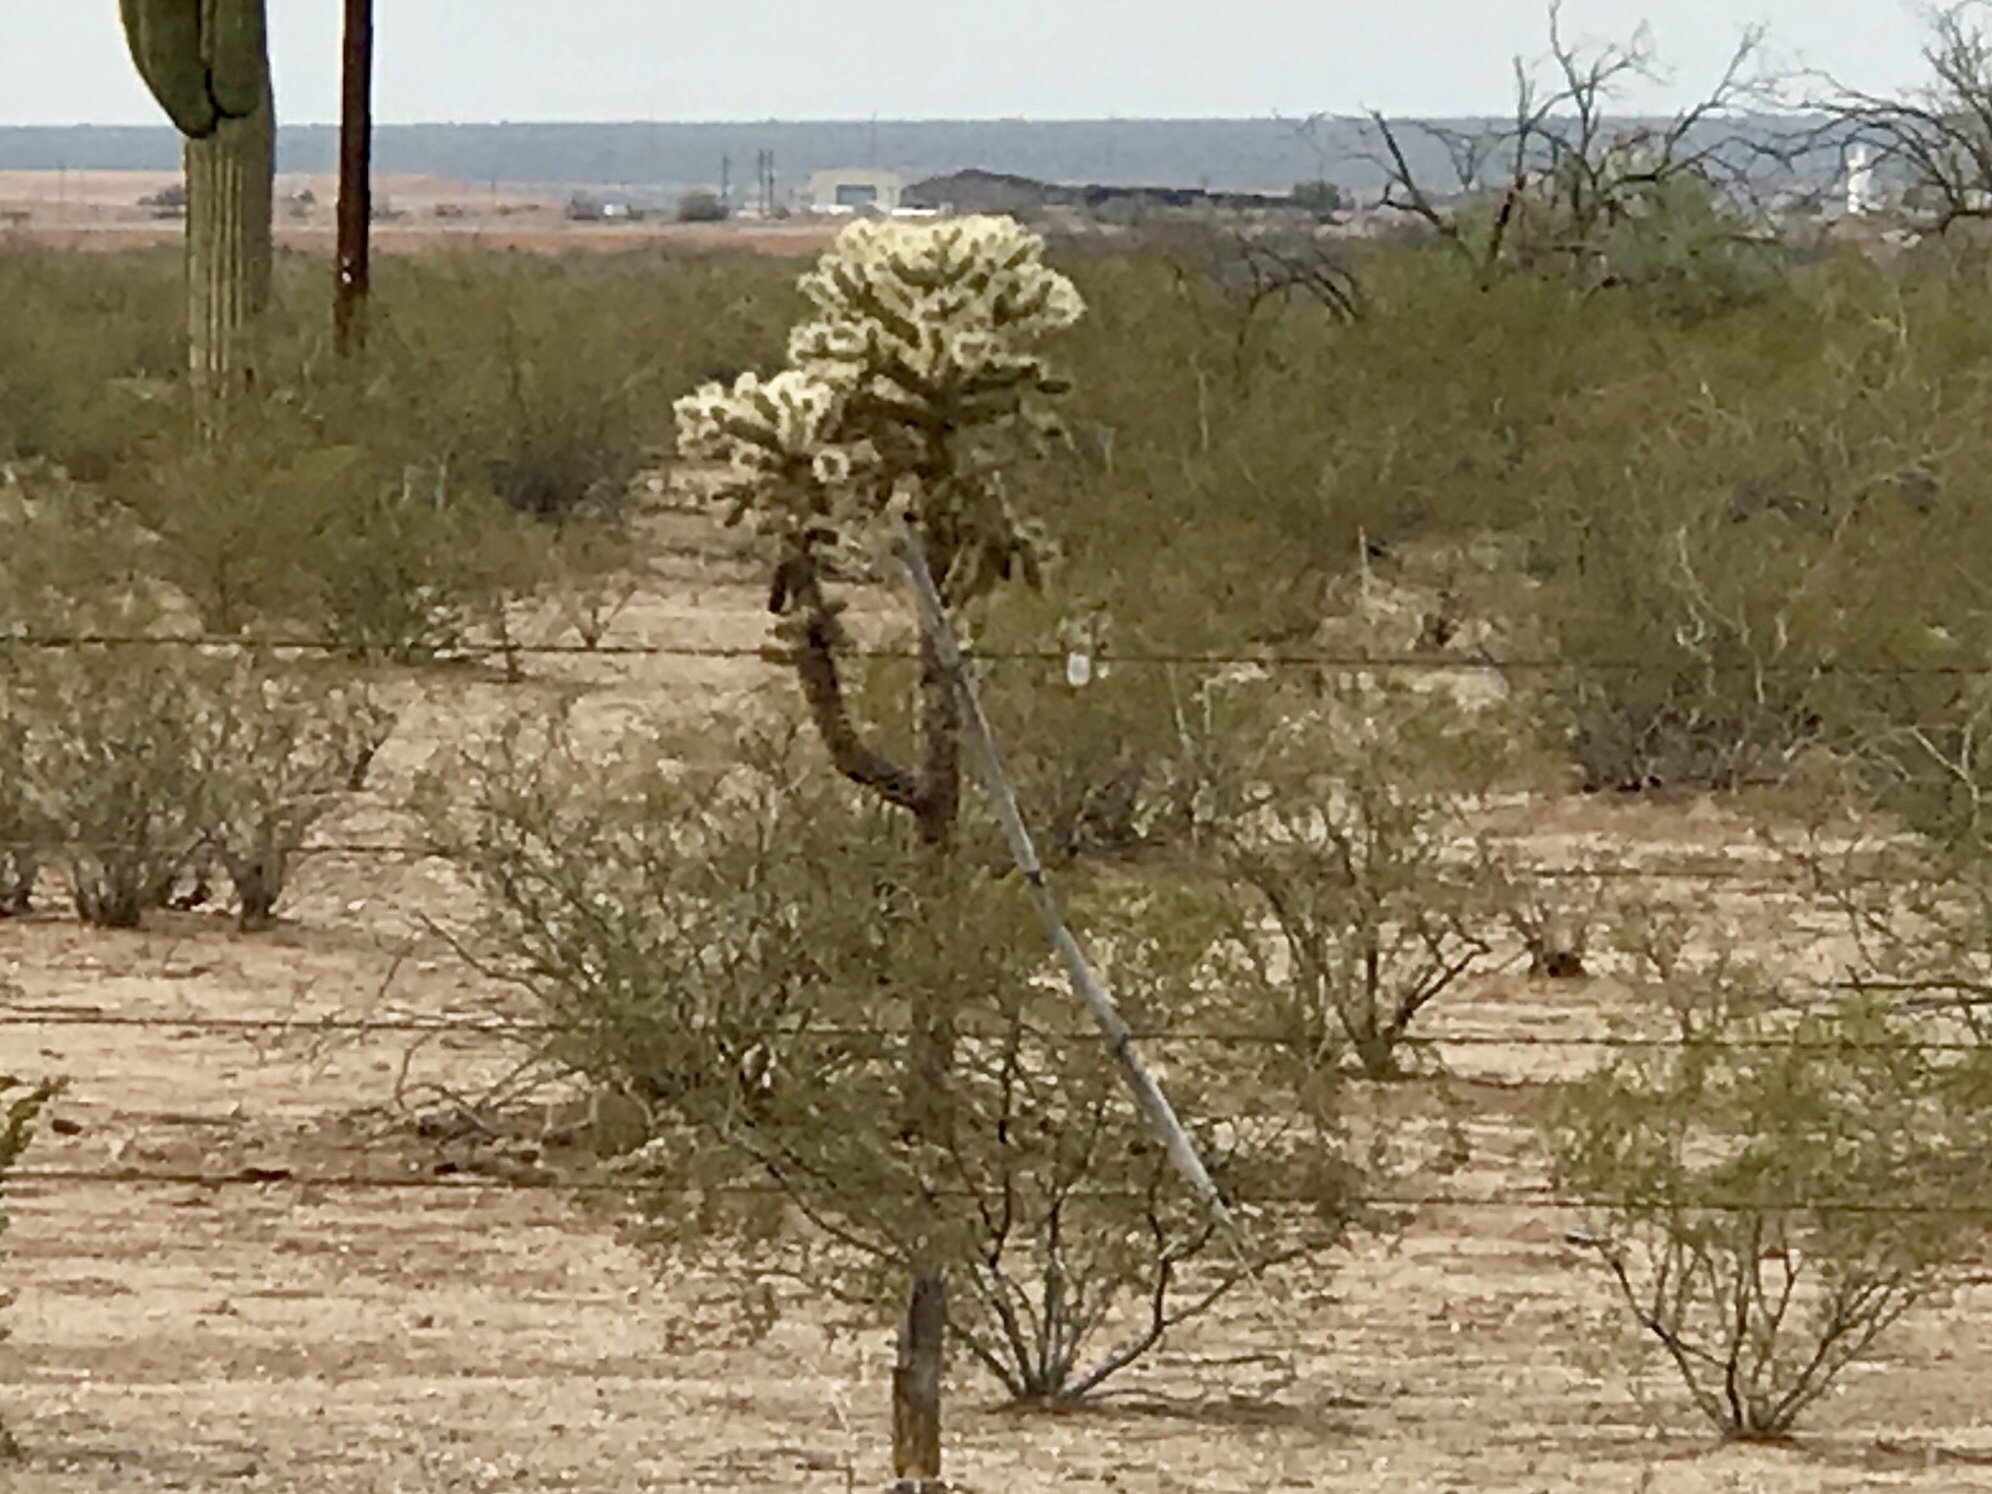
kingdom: Plantae
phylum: Tracheophyta
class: Magnoliopsida
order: Caryophyllales
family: Cactaceae
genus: Cylindropuntia
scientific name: Cylindropuntia fulgida
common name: Jumping cholla
